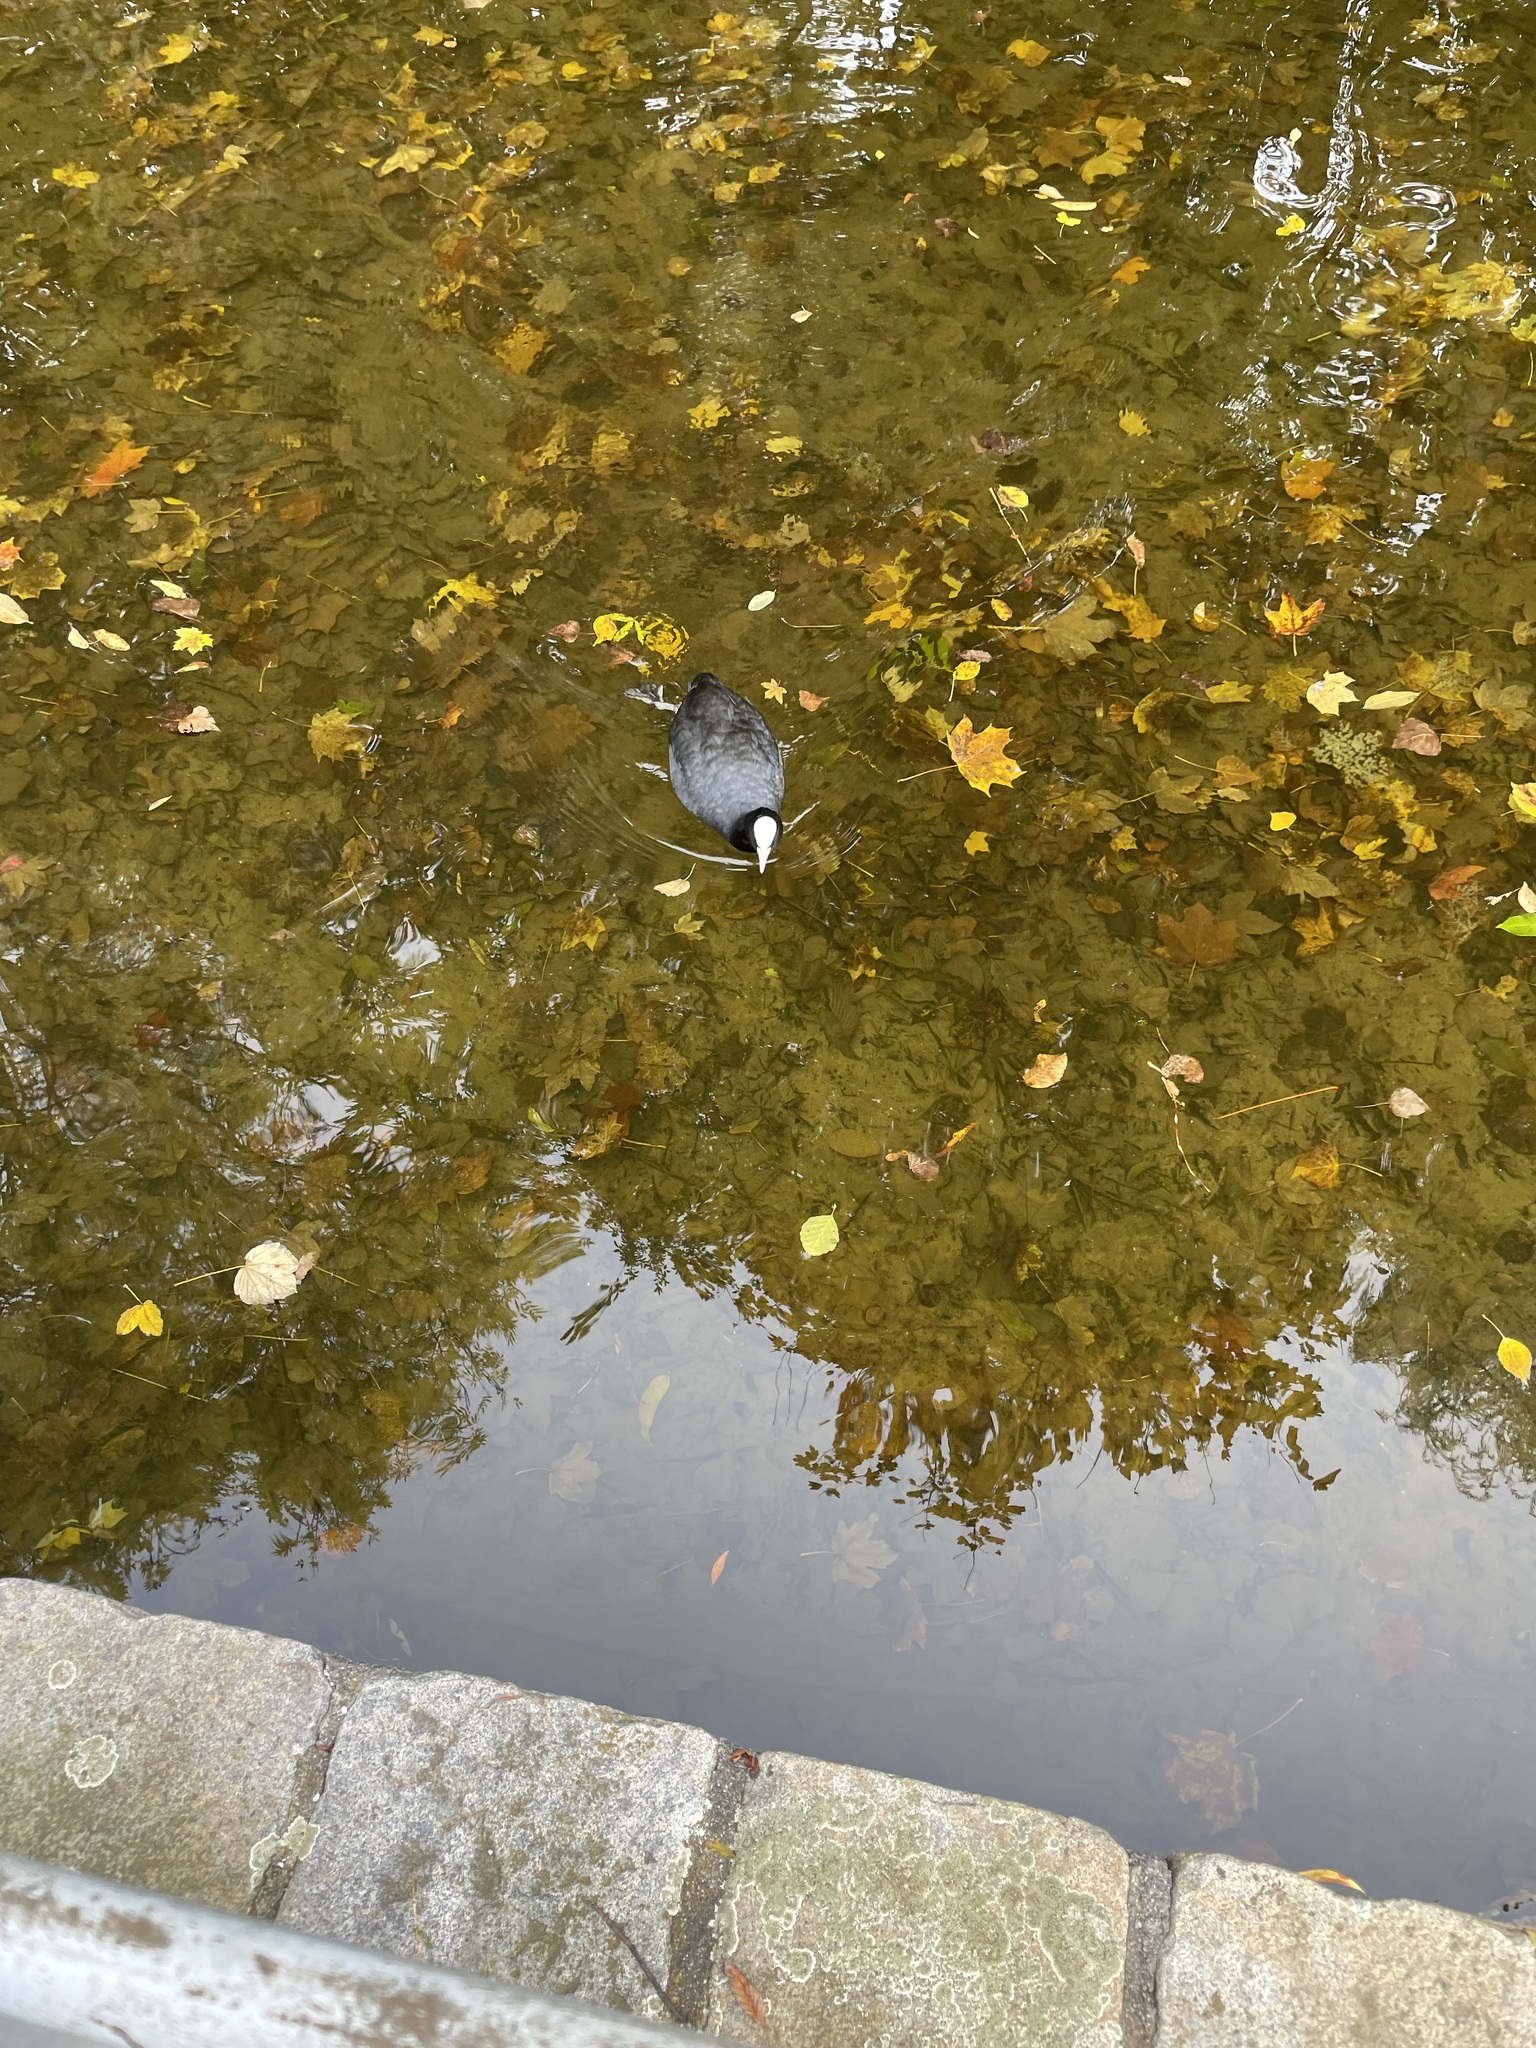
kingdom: Animalia
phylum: Chordata
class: Aves
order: Gruiformes
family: Rallidae
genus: Fulica
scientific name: Fulica atra
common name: Eurasian coot
